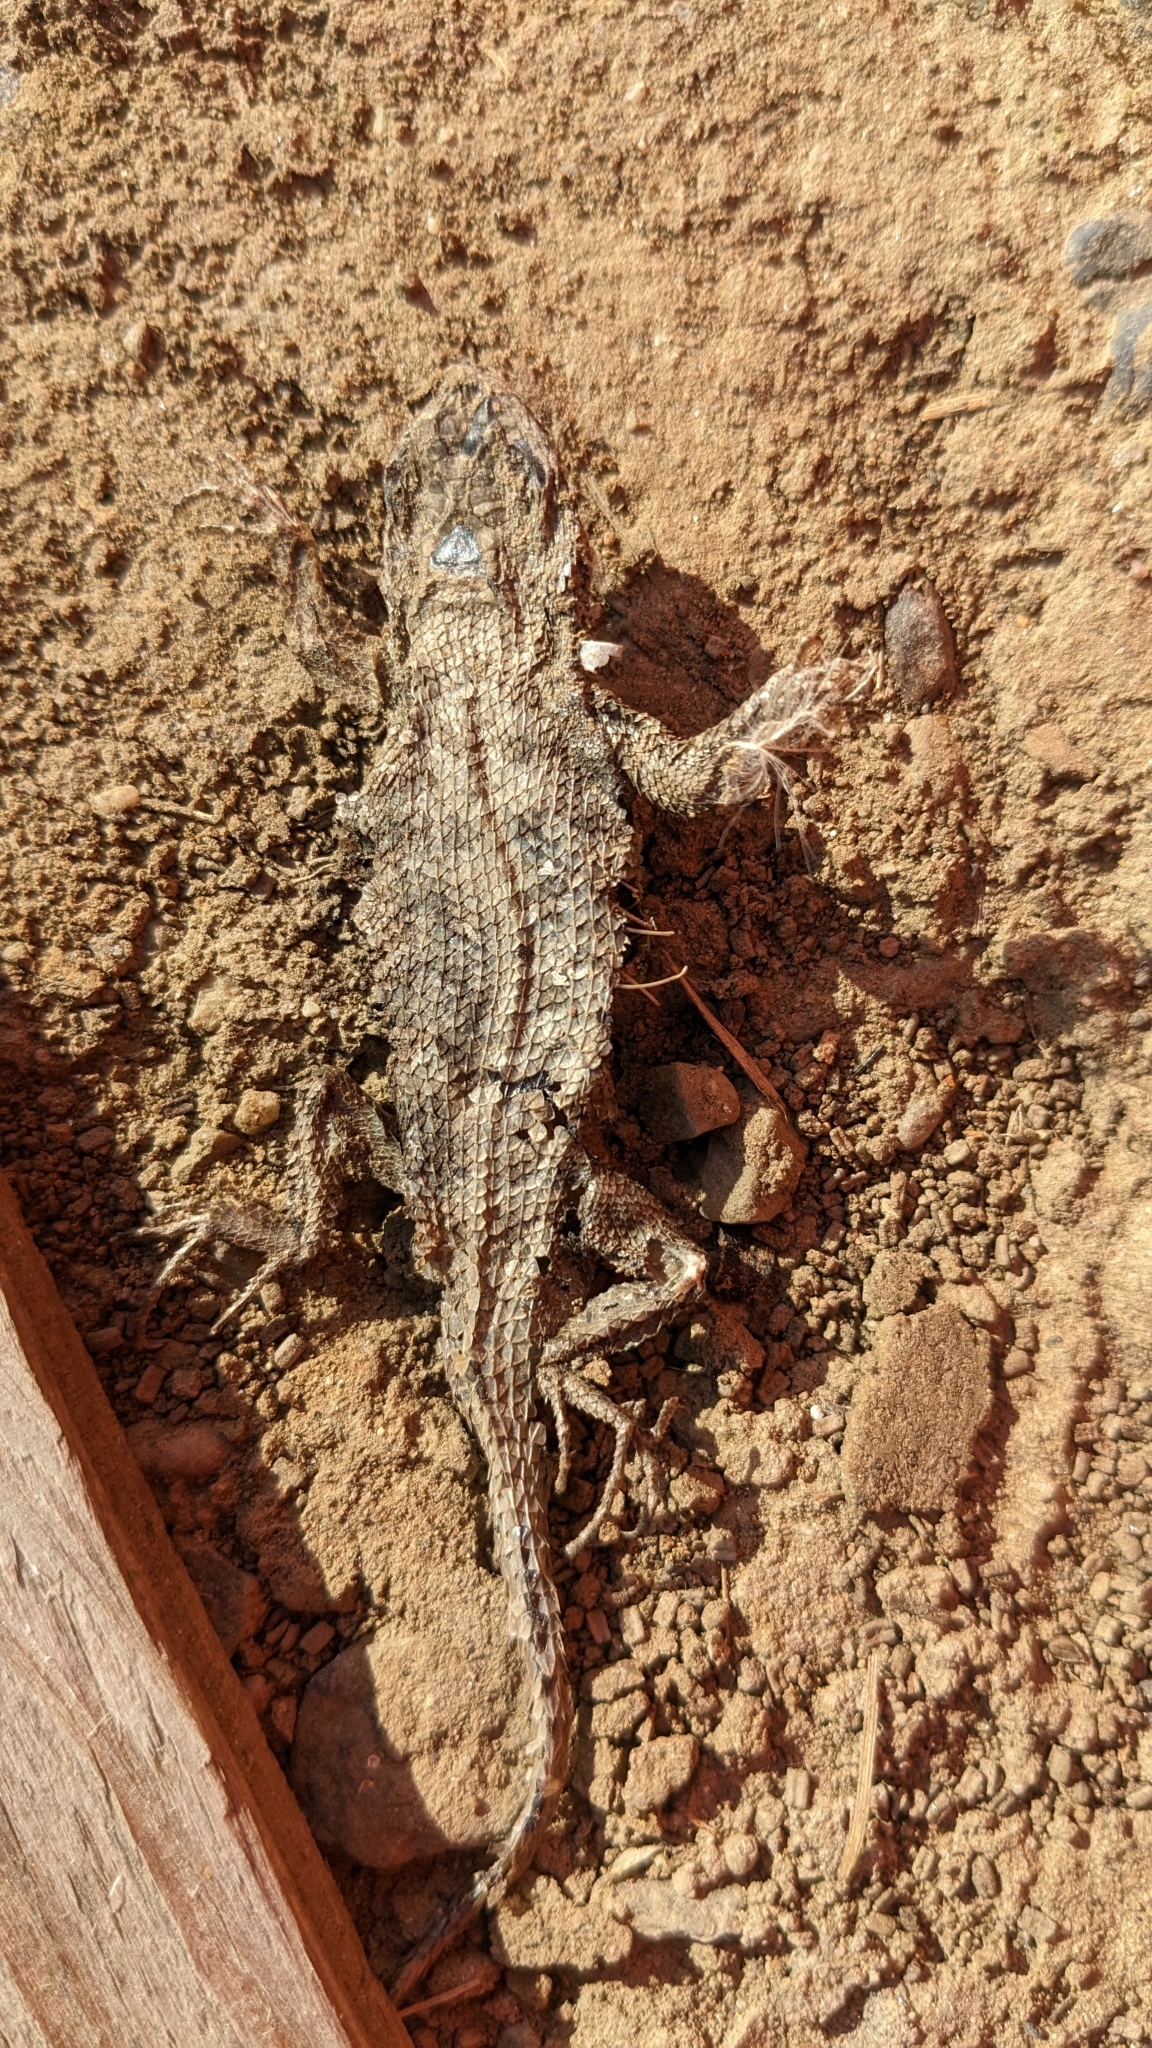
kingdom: Animalia
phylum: Chordata
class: Squamata
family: Phrynosomatidae
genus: Sceloporus
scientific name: Sceloporus occidentalis
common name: Western fence lizard
